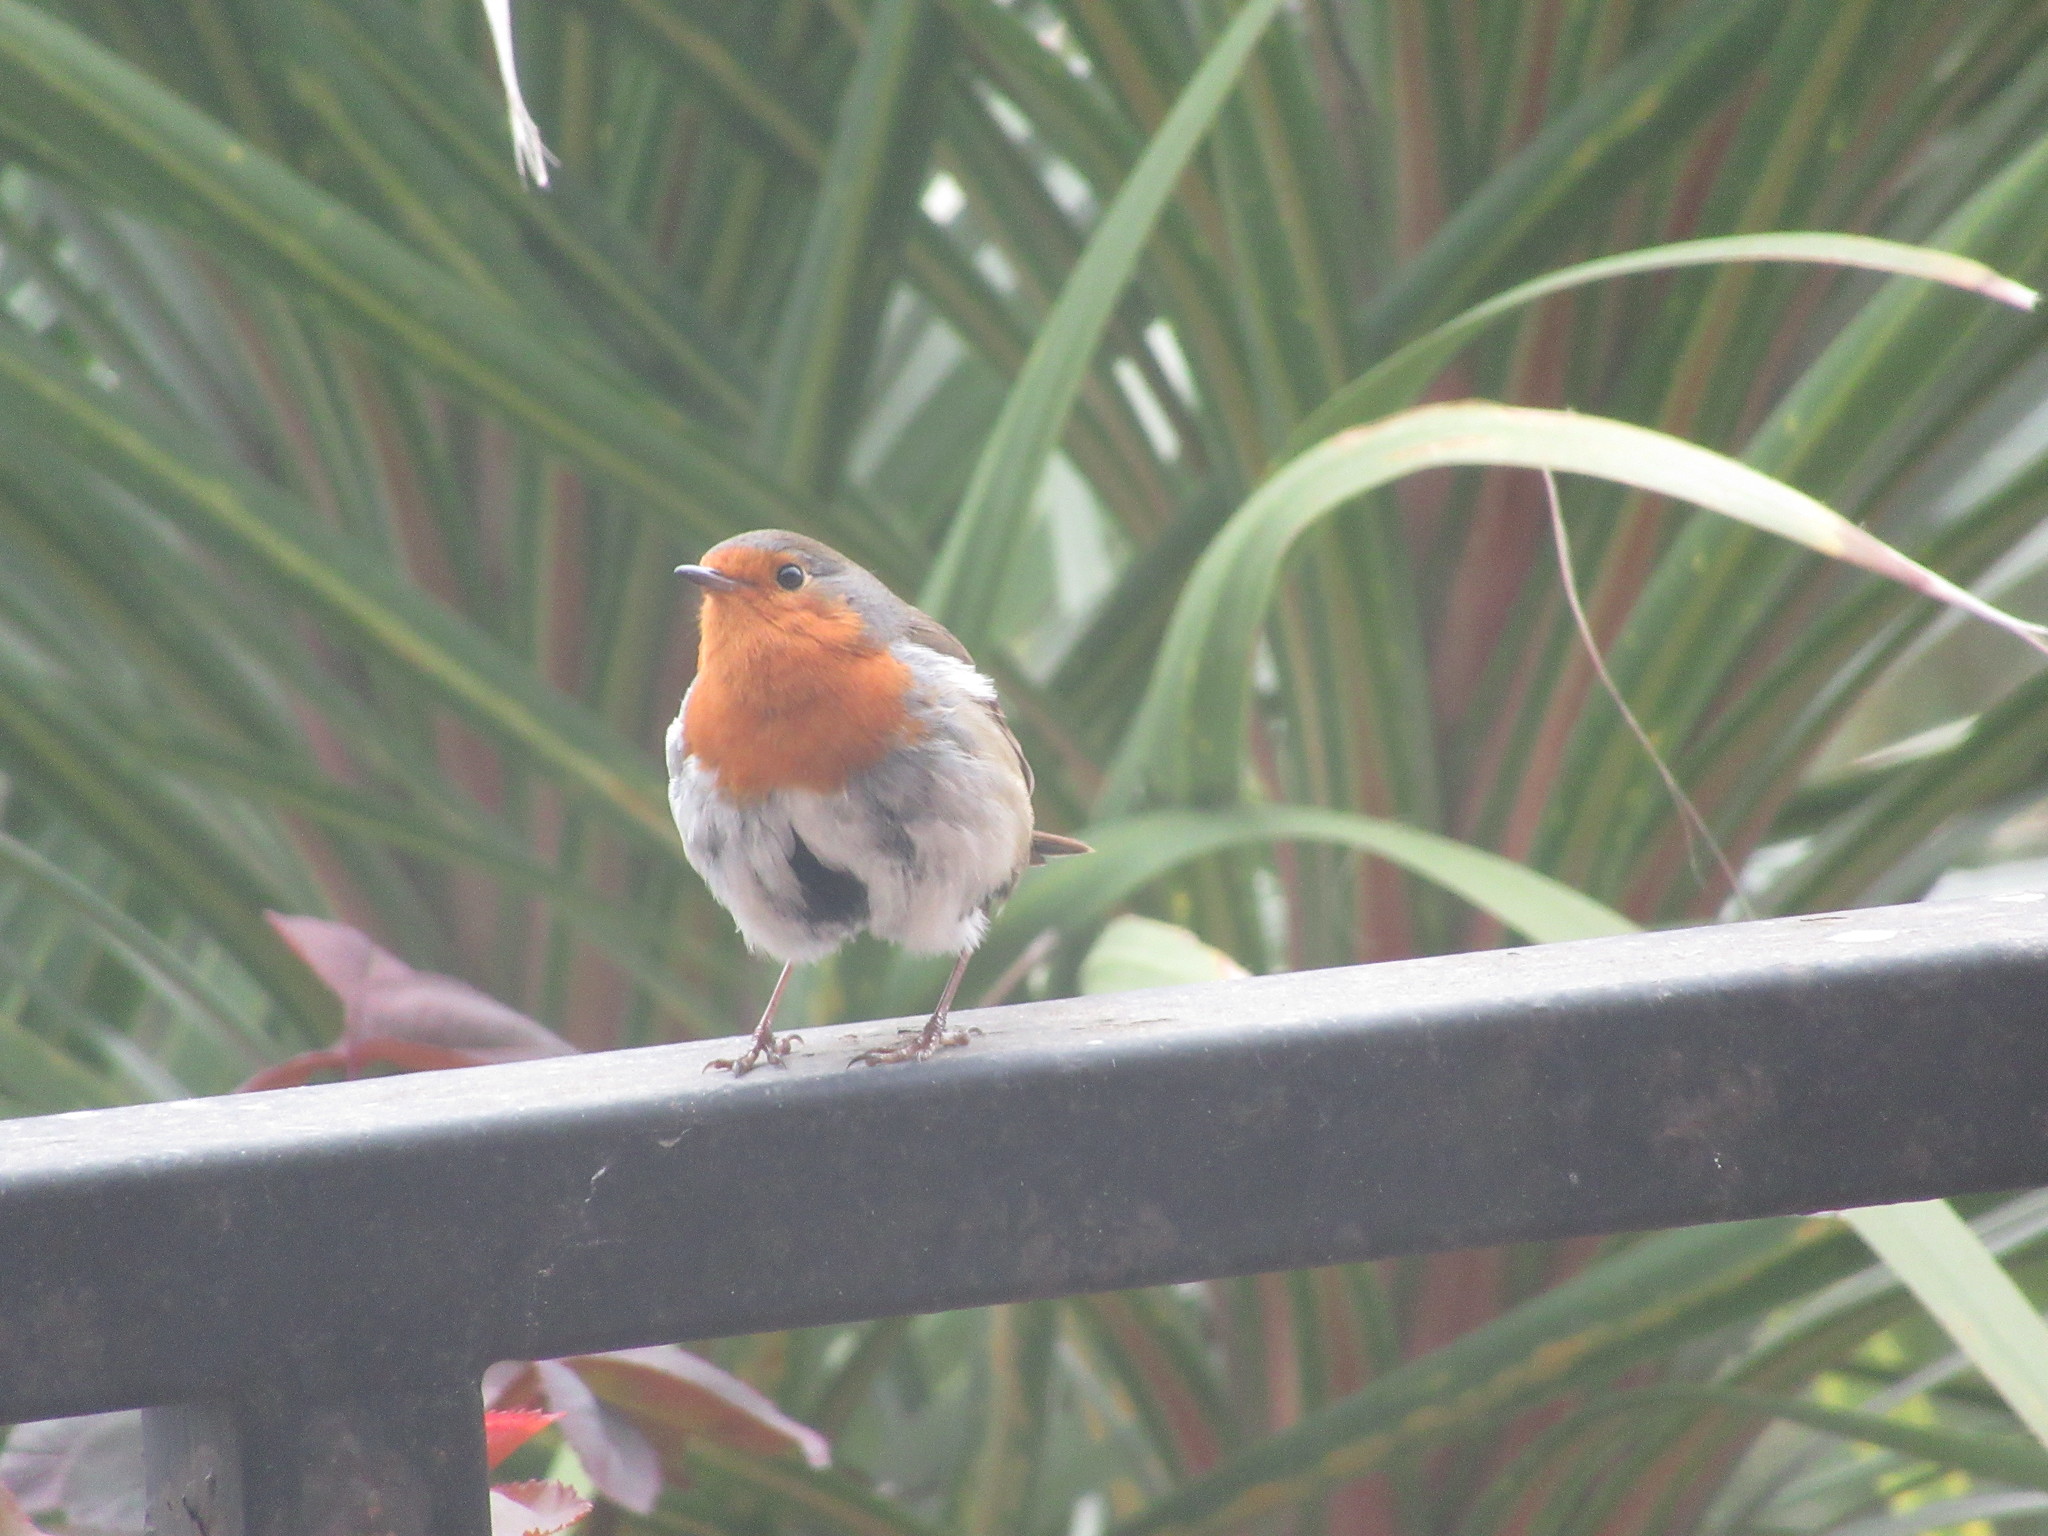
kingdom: Animalia
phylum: Chordata
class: Aves
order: Passeriformes
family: Muscicapidae
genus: Erithacus
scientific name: Erithacus rubecula
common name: European robin
